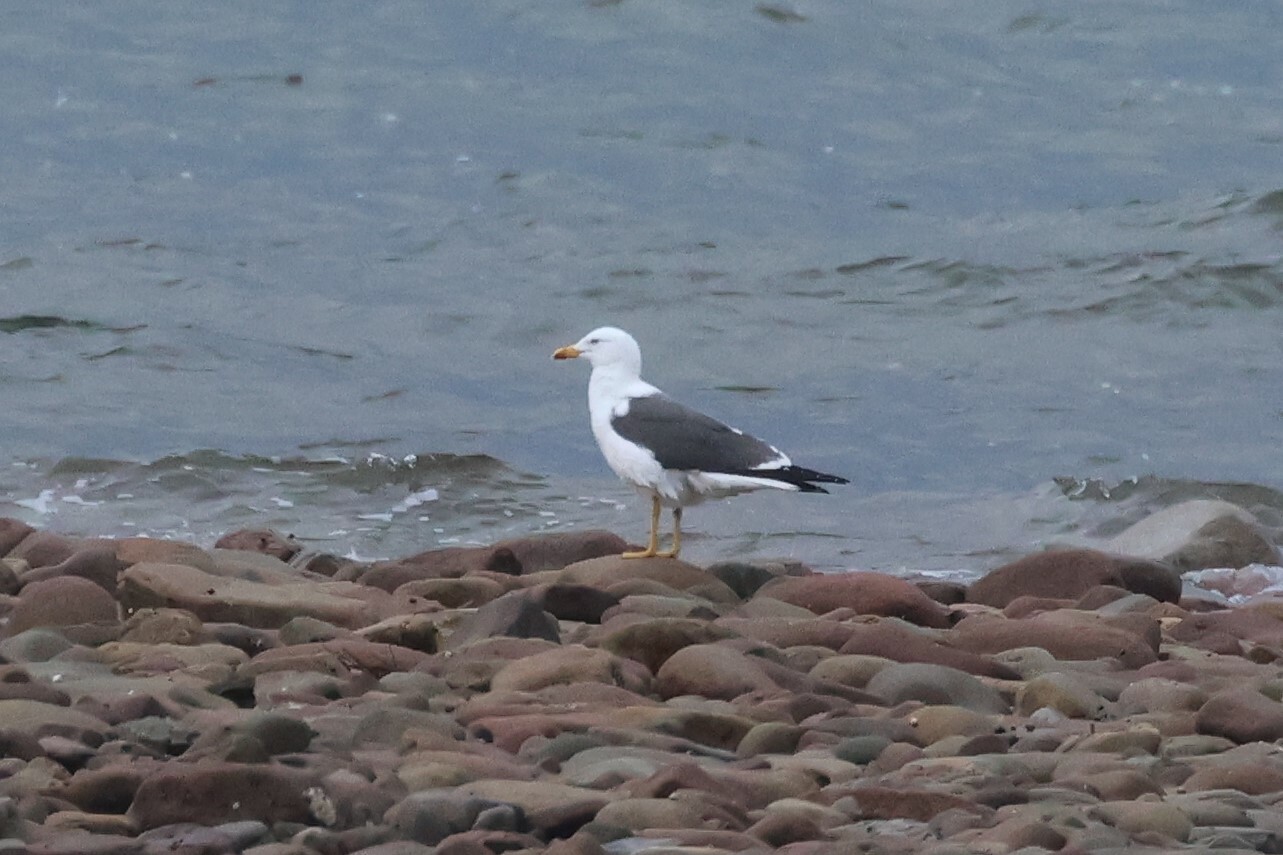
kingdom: Animalia
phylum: Chordata
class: Aves
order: Charadriiformes
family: Laridae
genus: Larus
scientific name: Larus fuscus
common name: Lesser black-backed gull
